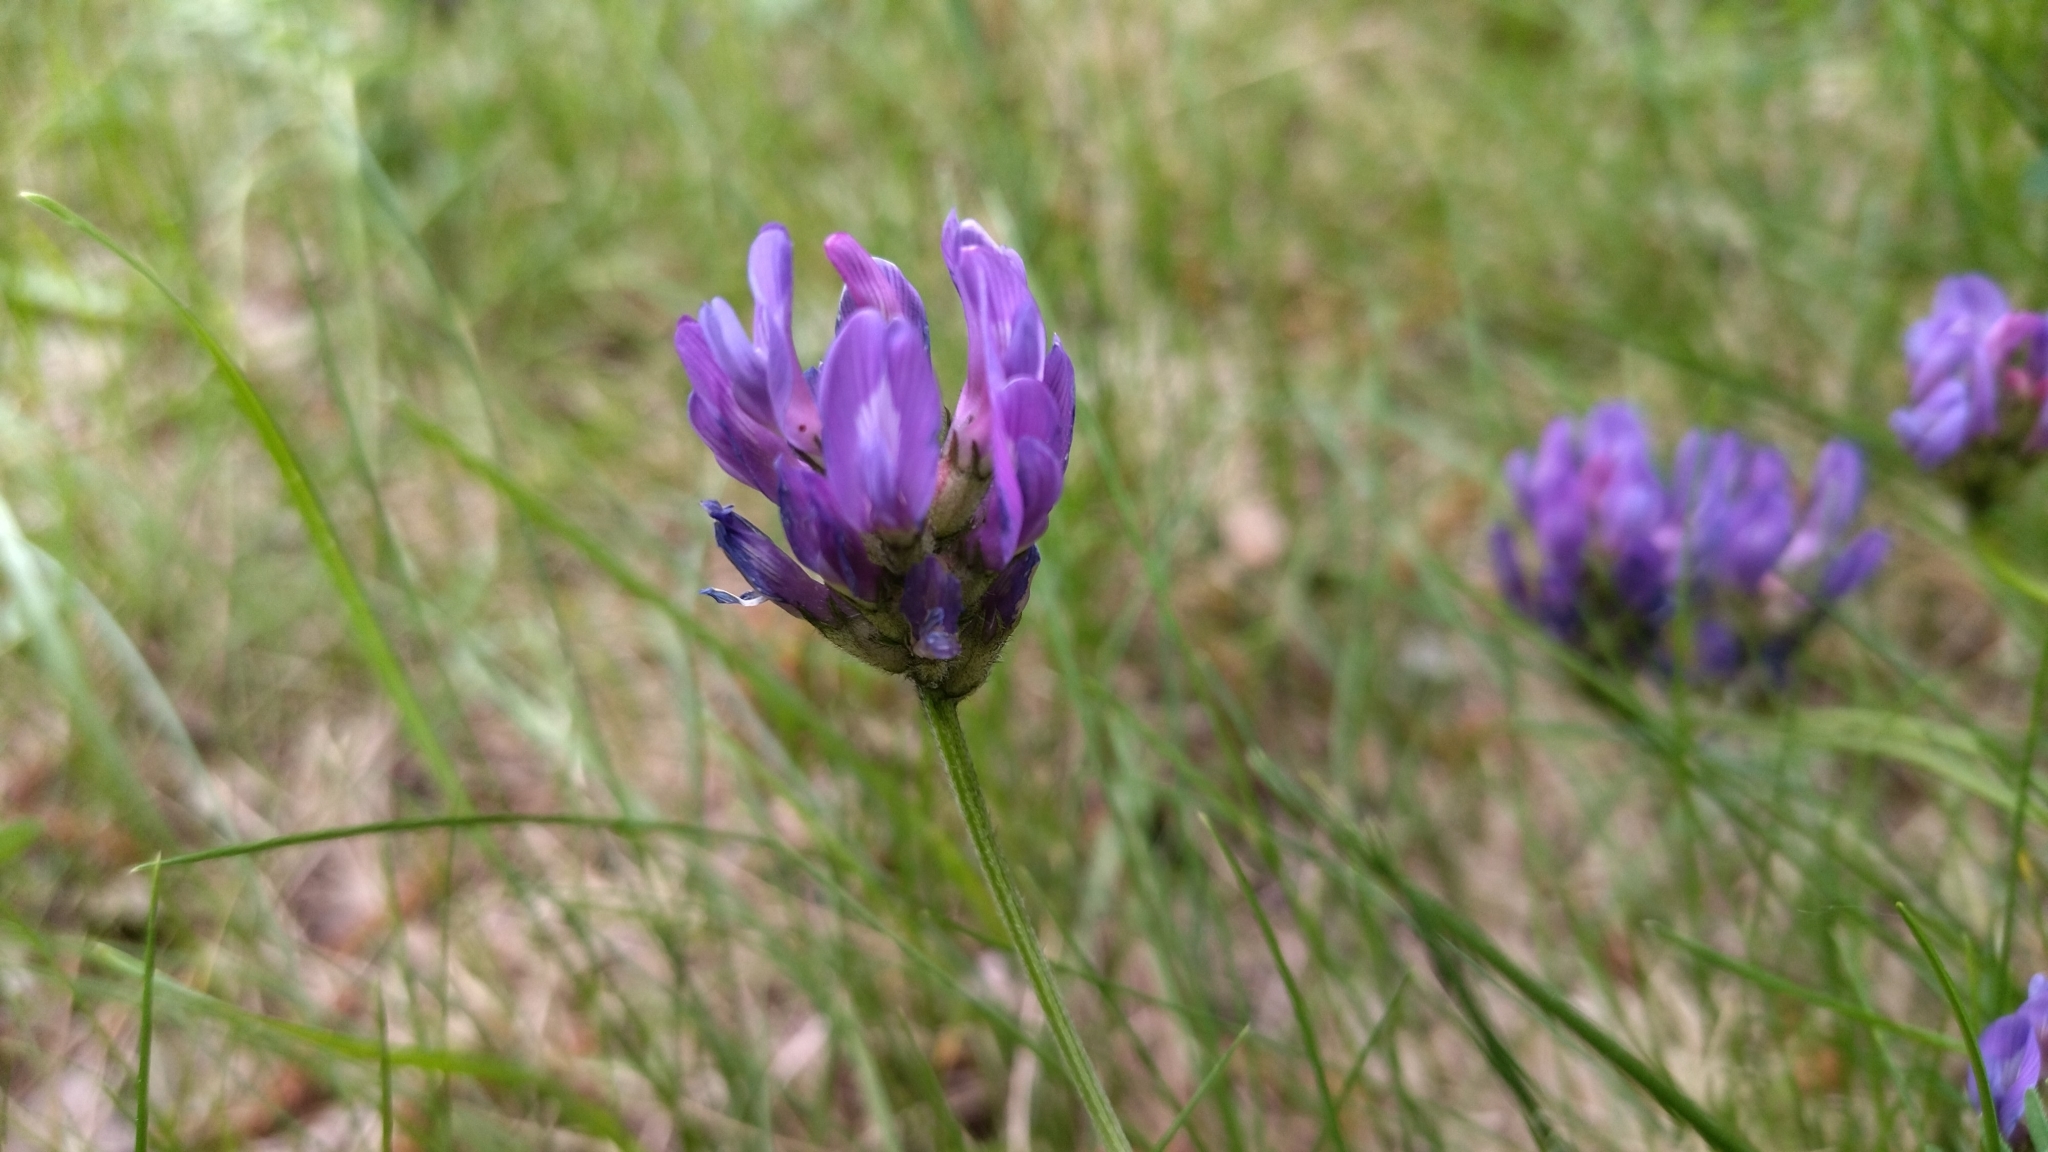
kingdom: Plantae
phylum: Tracheophyta
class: Magnoliopsida
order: Fabales
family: Fabaceae
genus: Astragalus
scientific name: Astragalus danicus
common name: Purple milk-vetch
